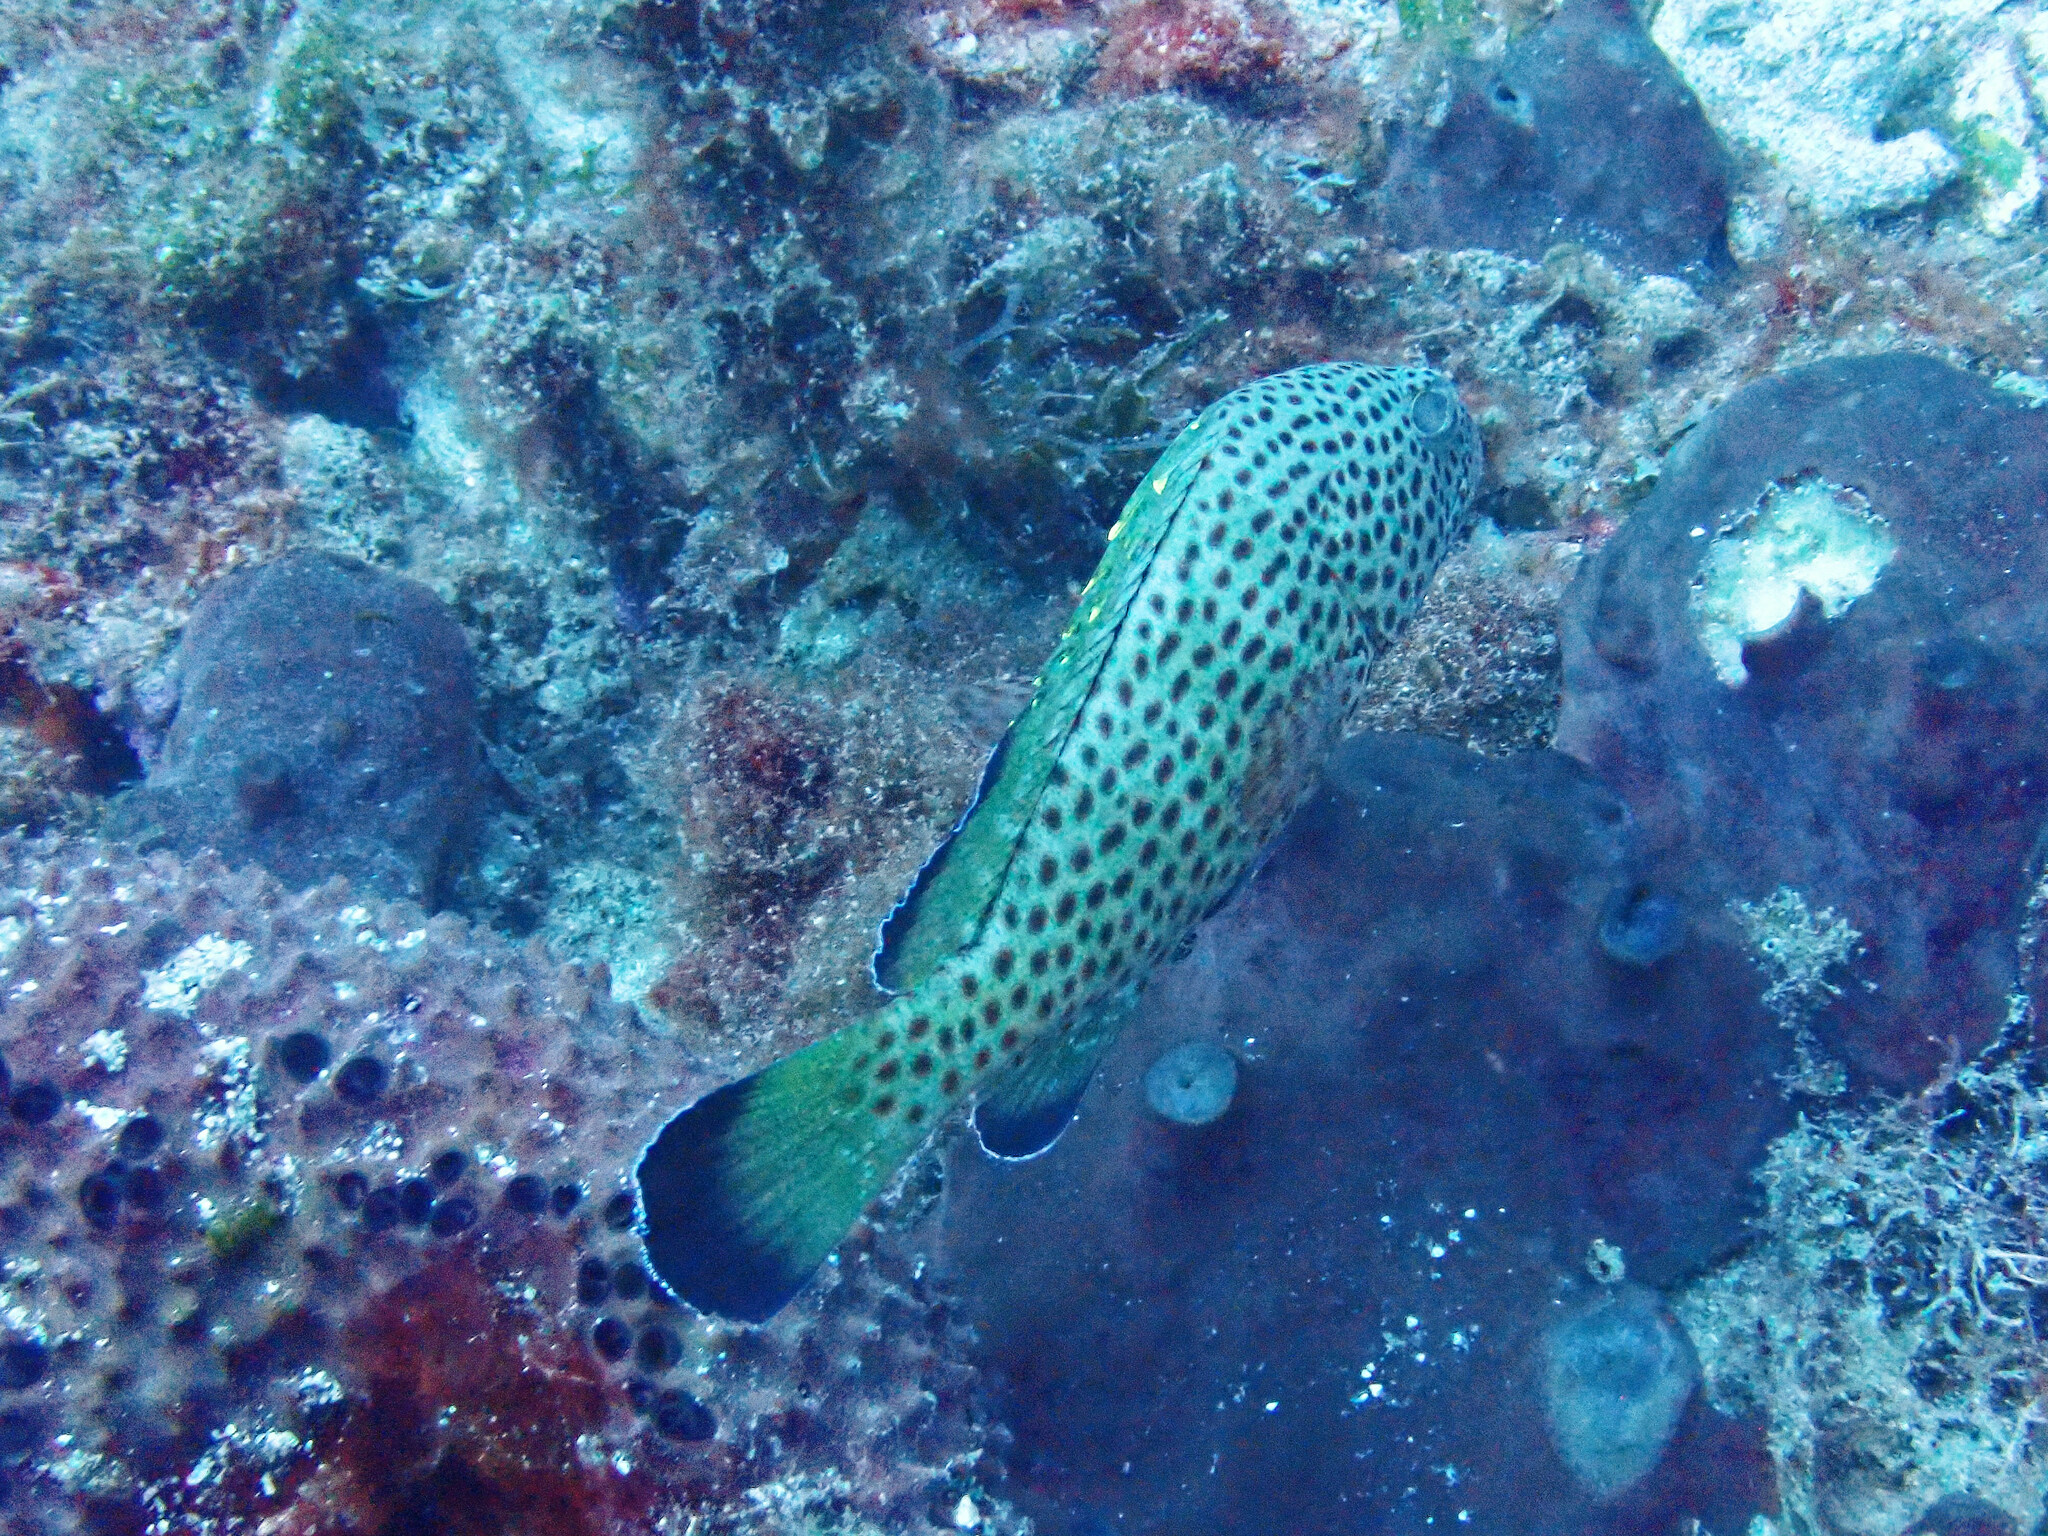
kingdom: Animalia
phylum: Chordata
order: Perciformes
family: Serranidae
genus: Epinephelus
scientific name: Epinephelus guttatus
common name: Red hind
